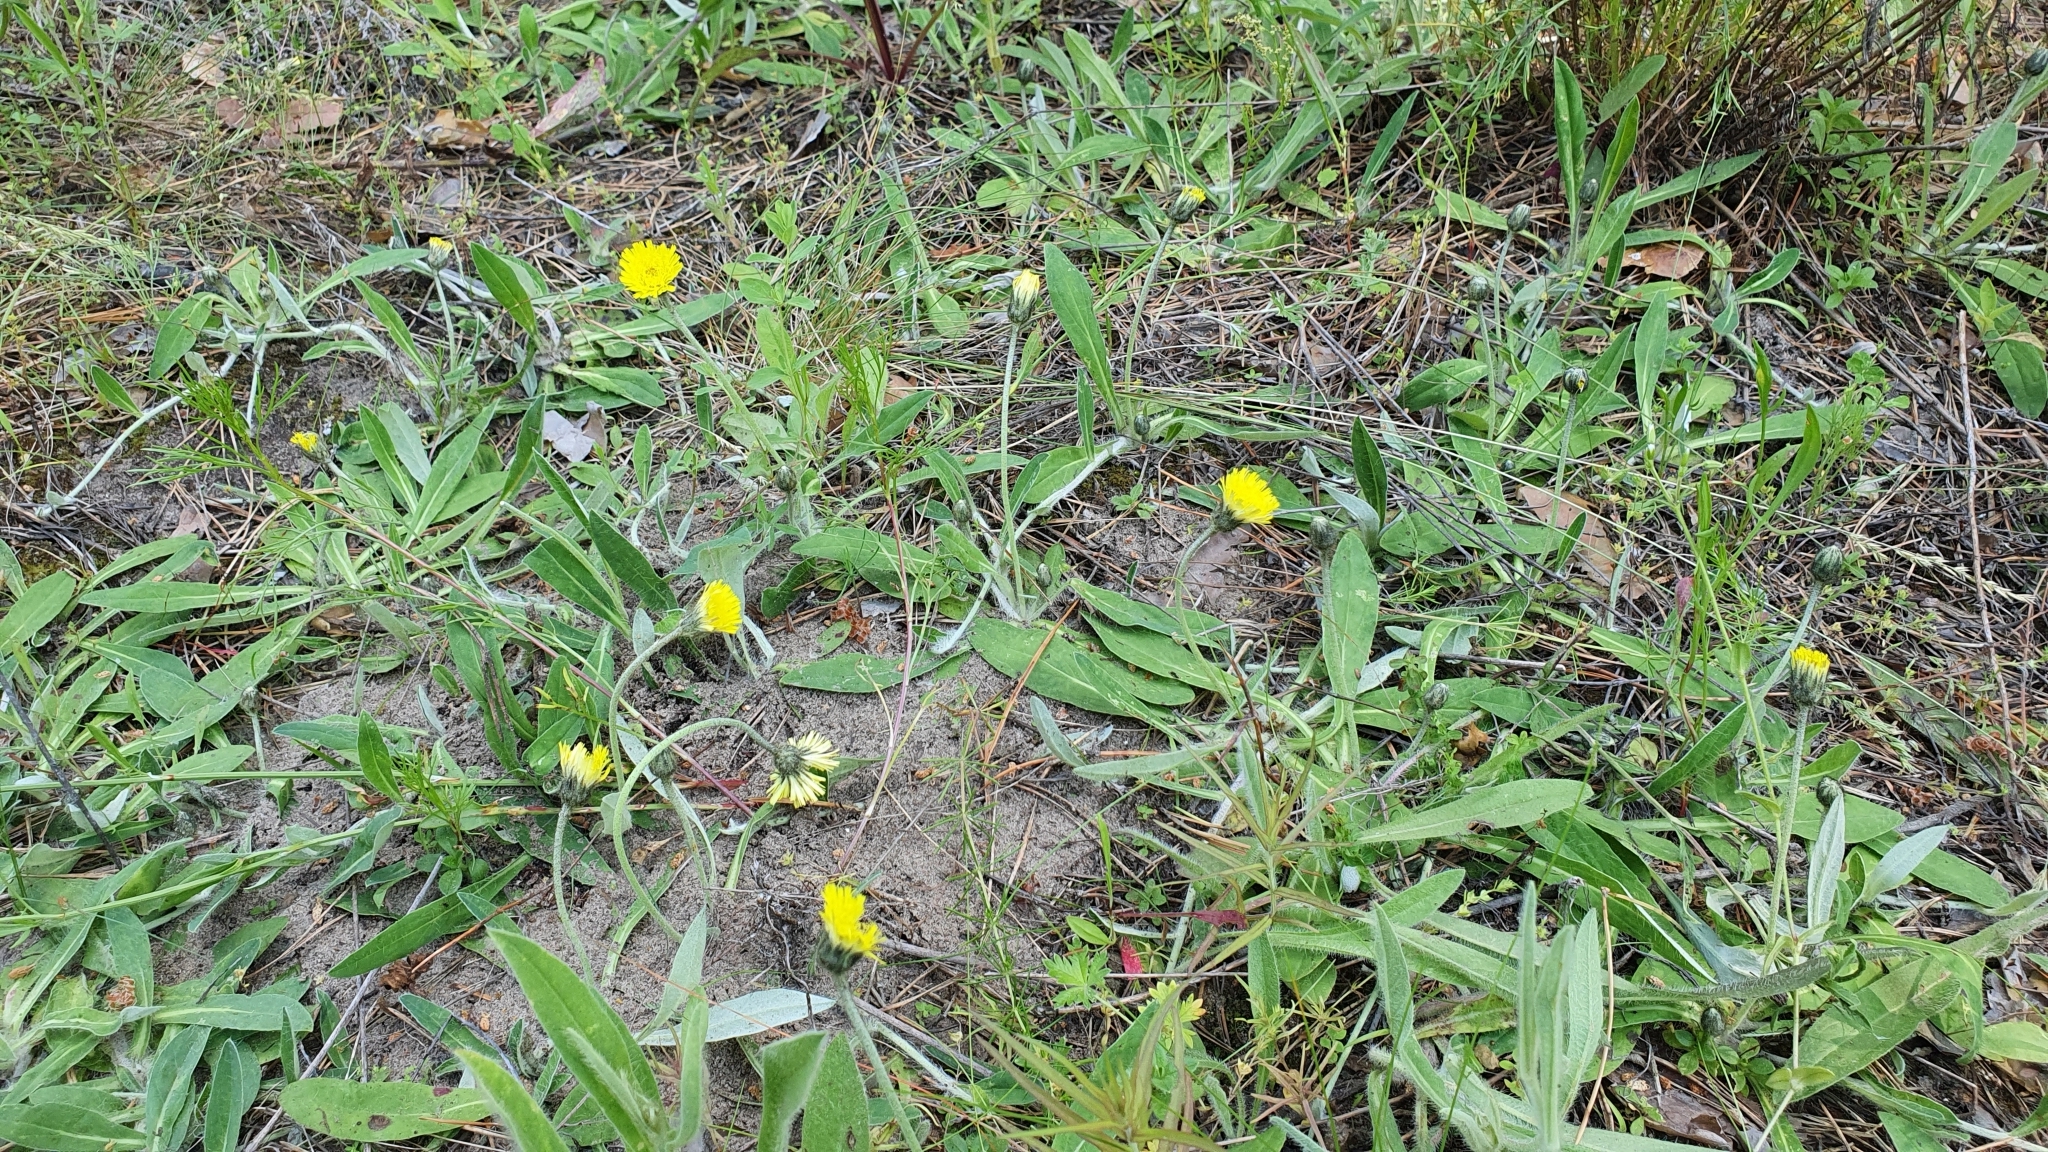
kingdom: Plantae
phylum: Tracheophyta
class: Magnoliopsida
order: Asterales
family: Asteraceae
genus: Pilosella
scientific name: Pilosella officinarum
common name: Mouse-ear hawkweed
